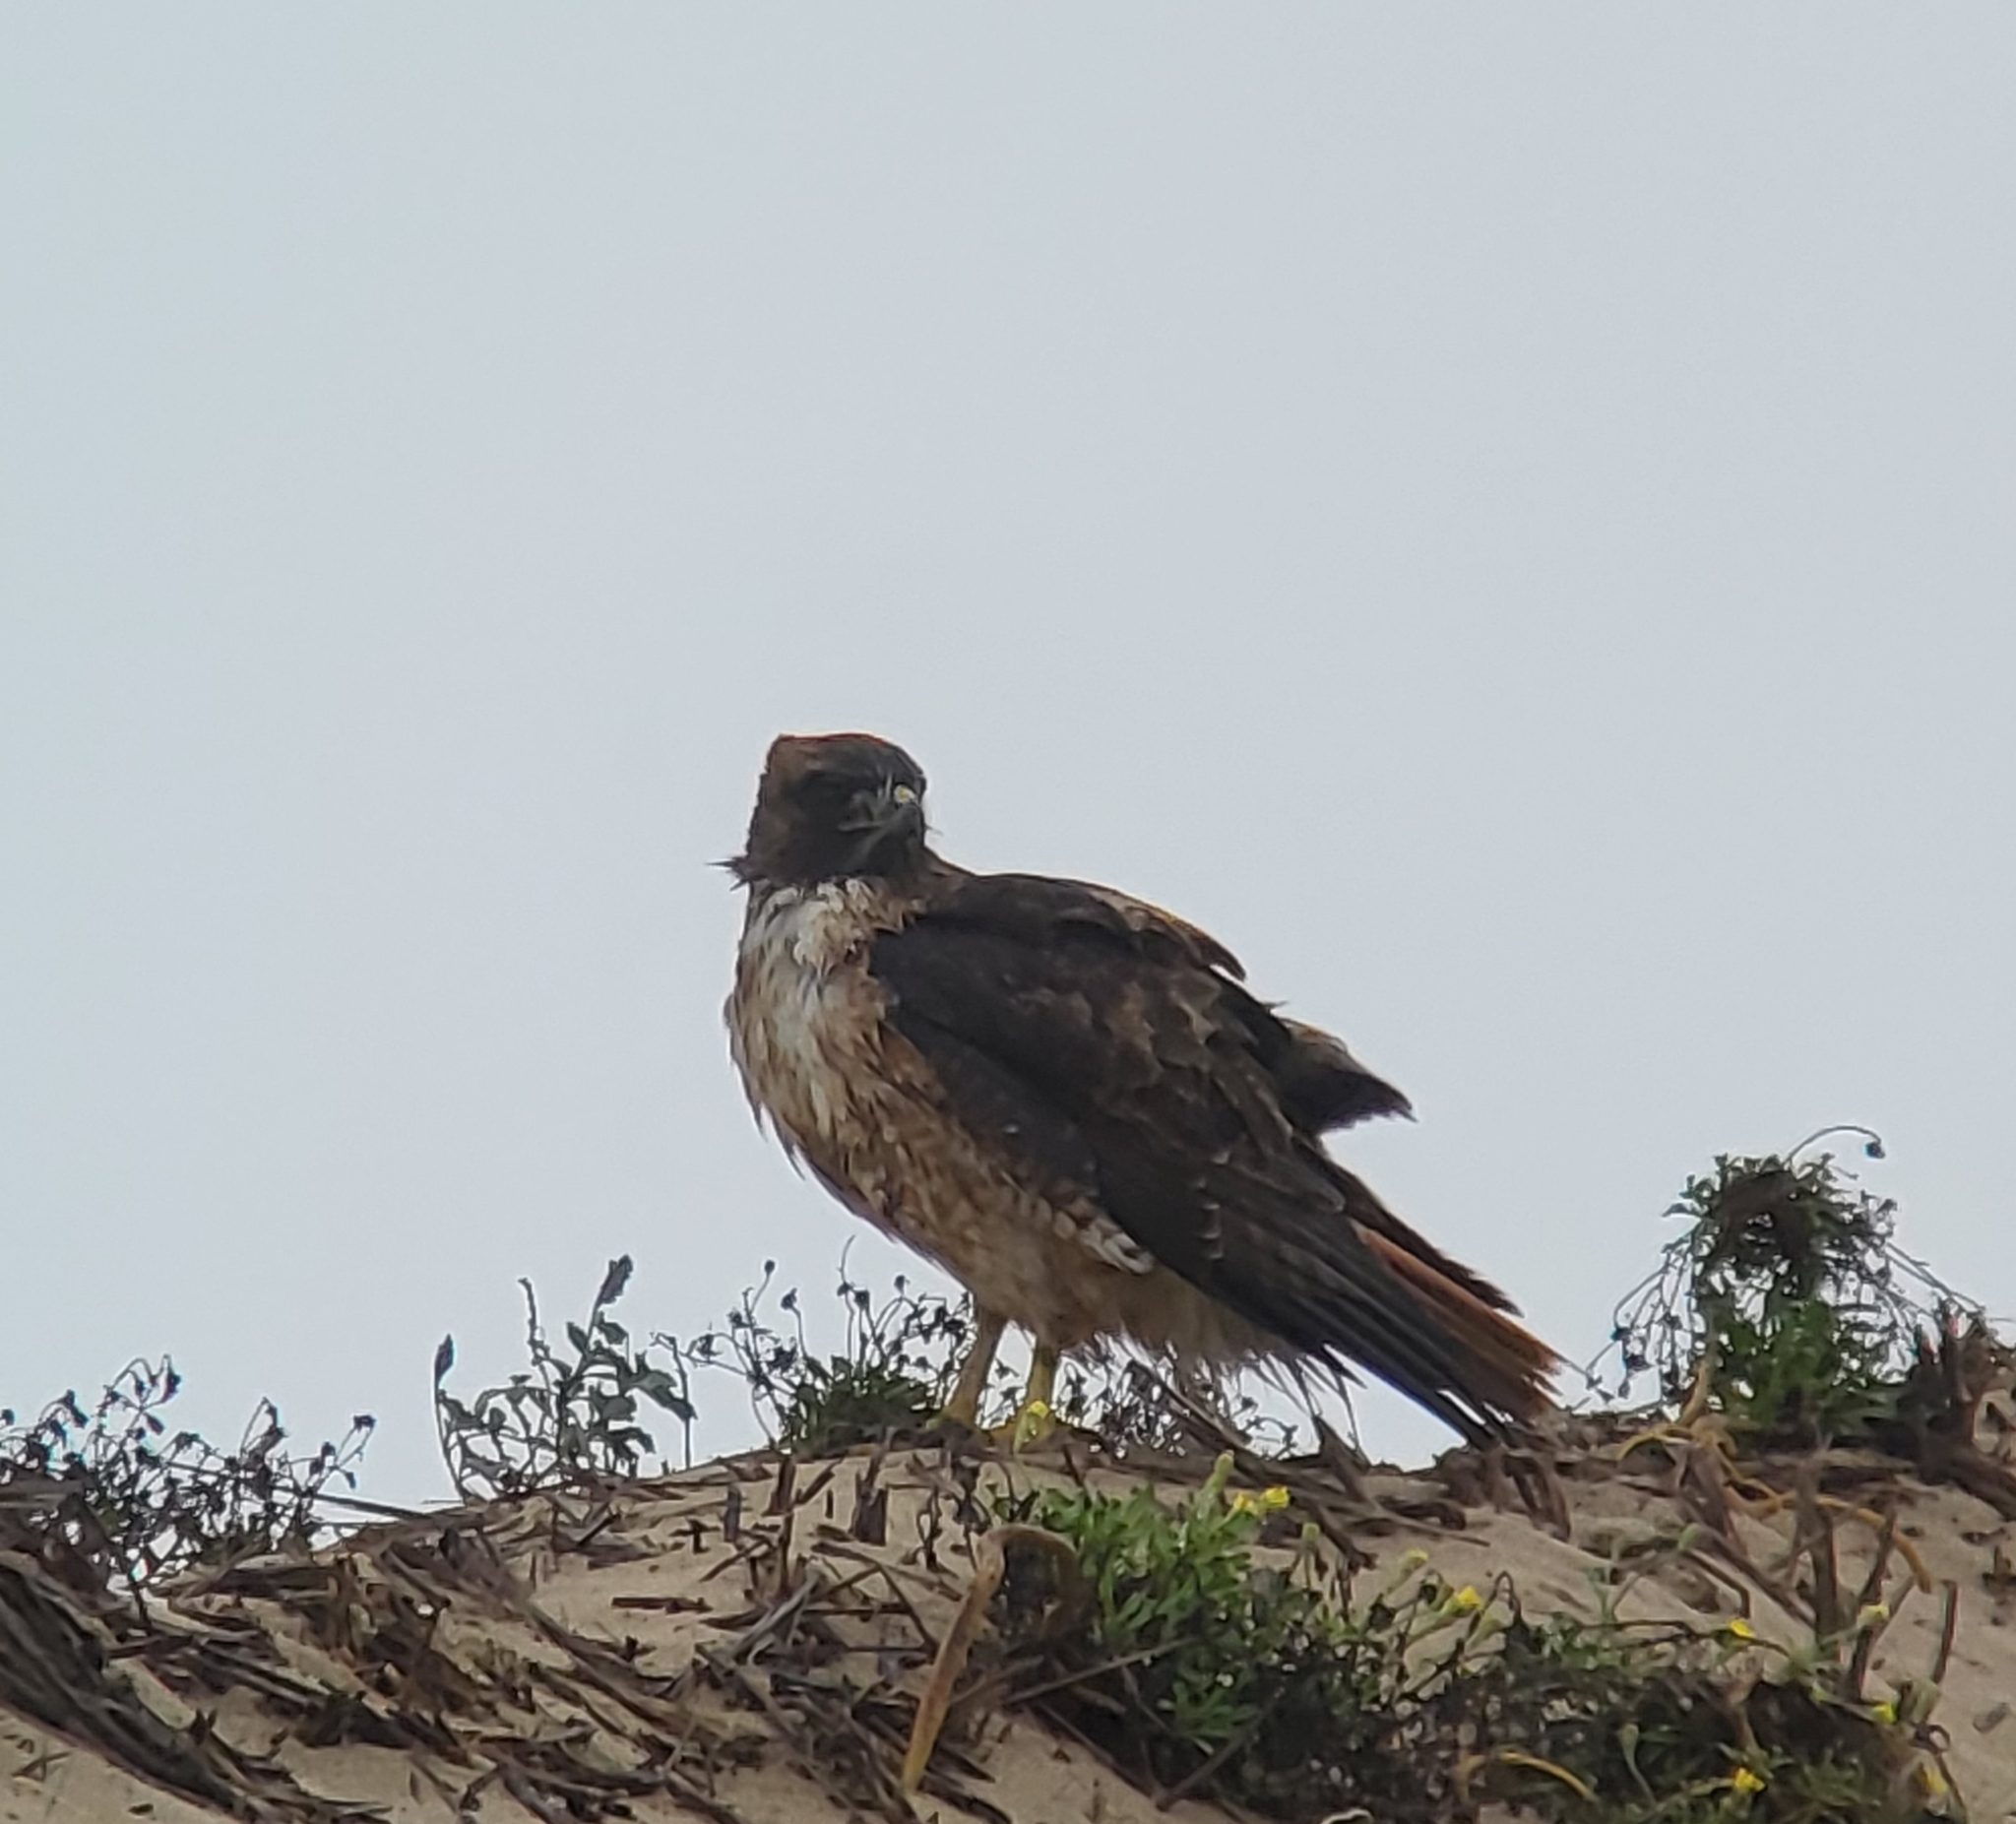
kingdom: Animalia
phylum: Chordata
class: Aves
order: Accipitriformes
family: Accipitridae
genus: Buteo
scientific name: Buteo jamaicensis
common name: Red-tailed hawk
